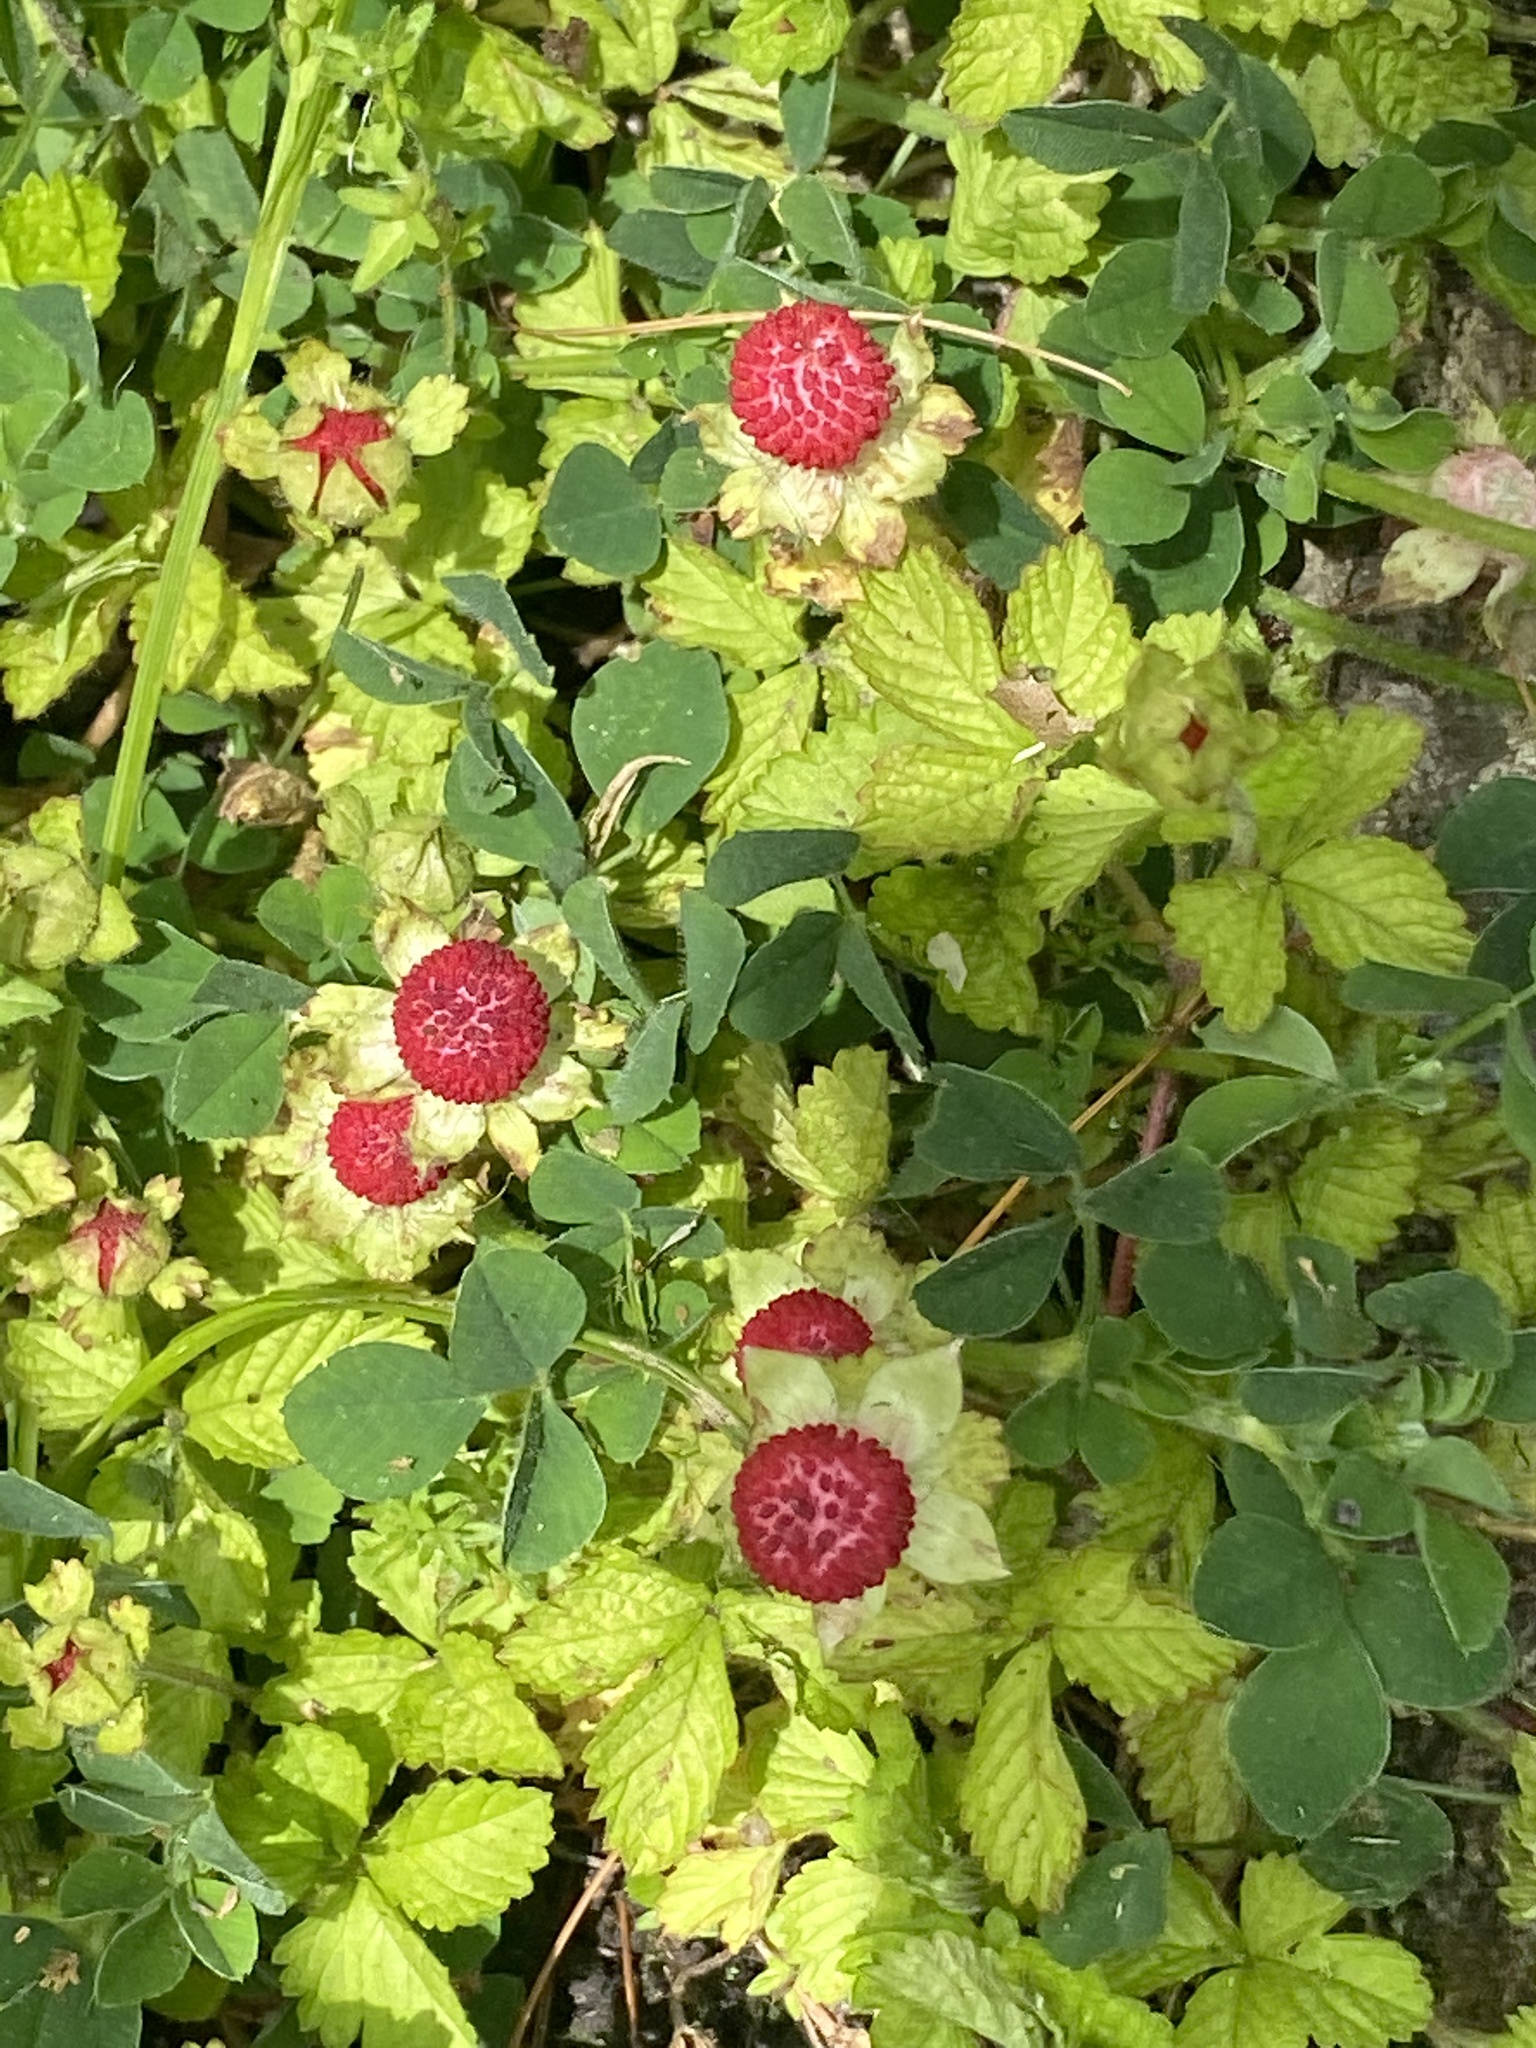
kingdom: Plantae
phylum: Tracheophyta
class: Magnoliopsida
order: Rosales
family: Rosaceae
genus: Potentilla
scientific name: Potentilla indica
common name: Yellow-flowered strawberry
